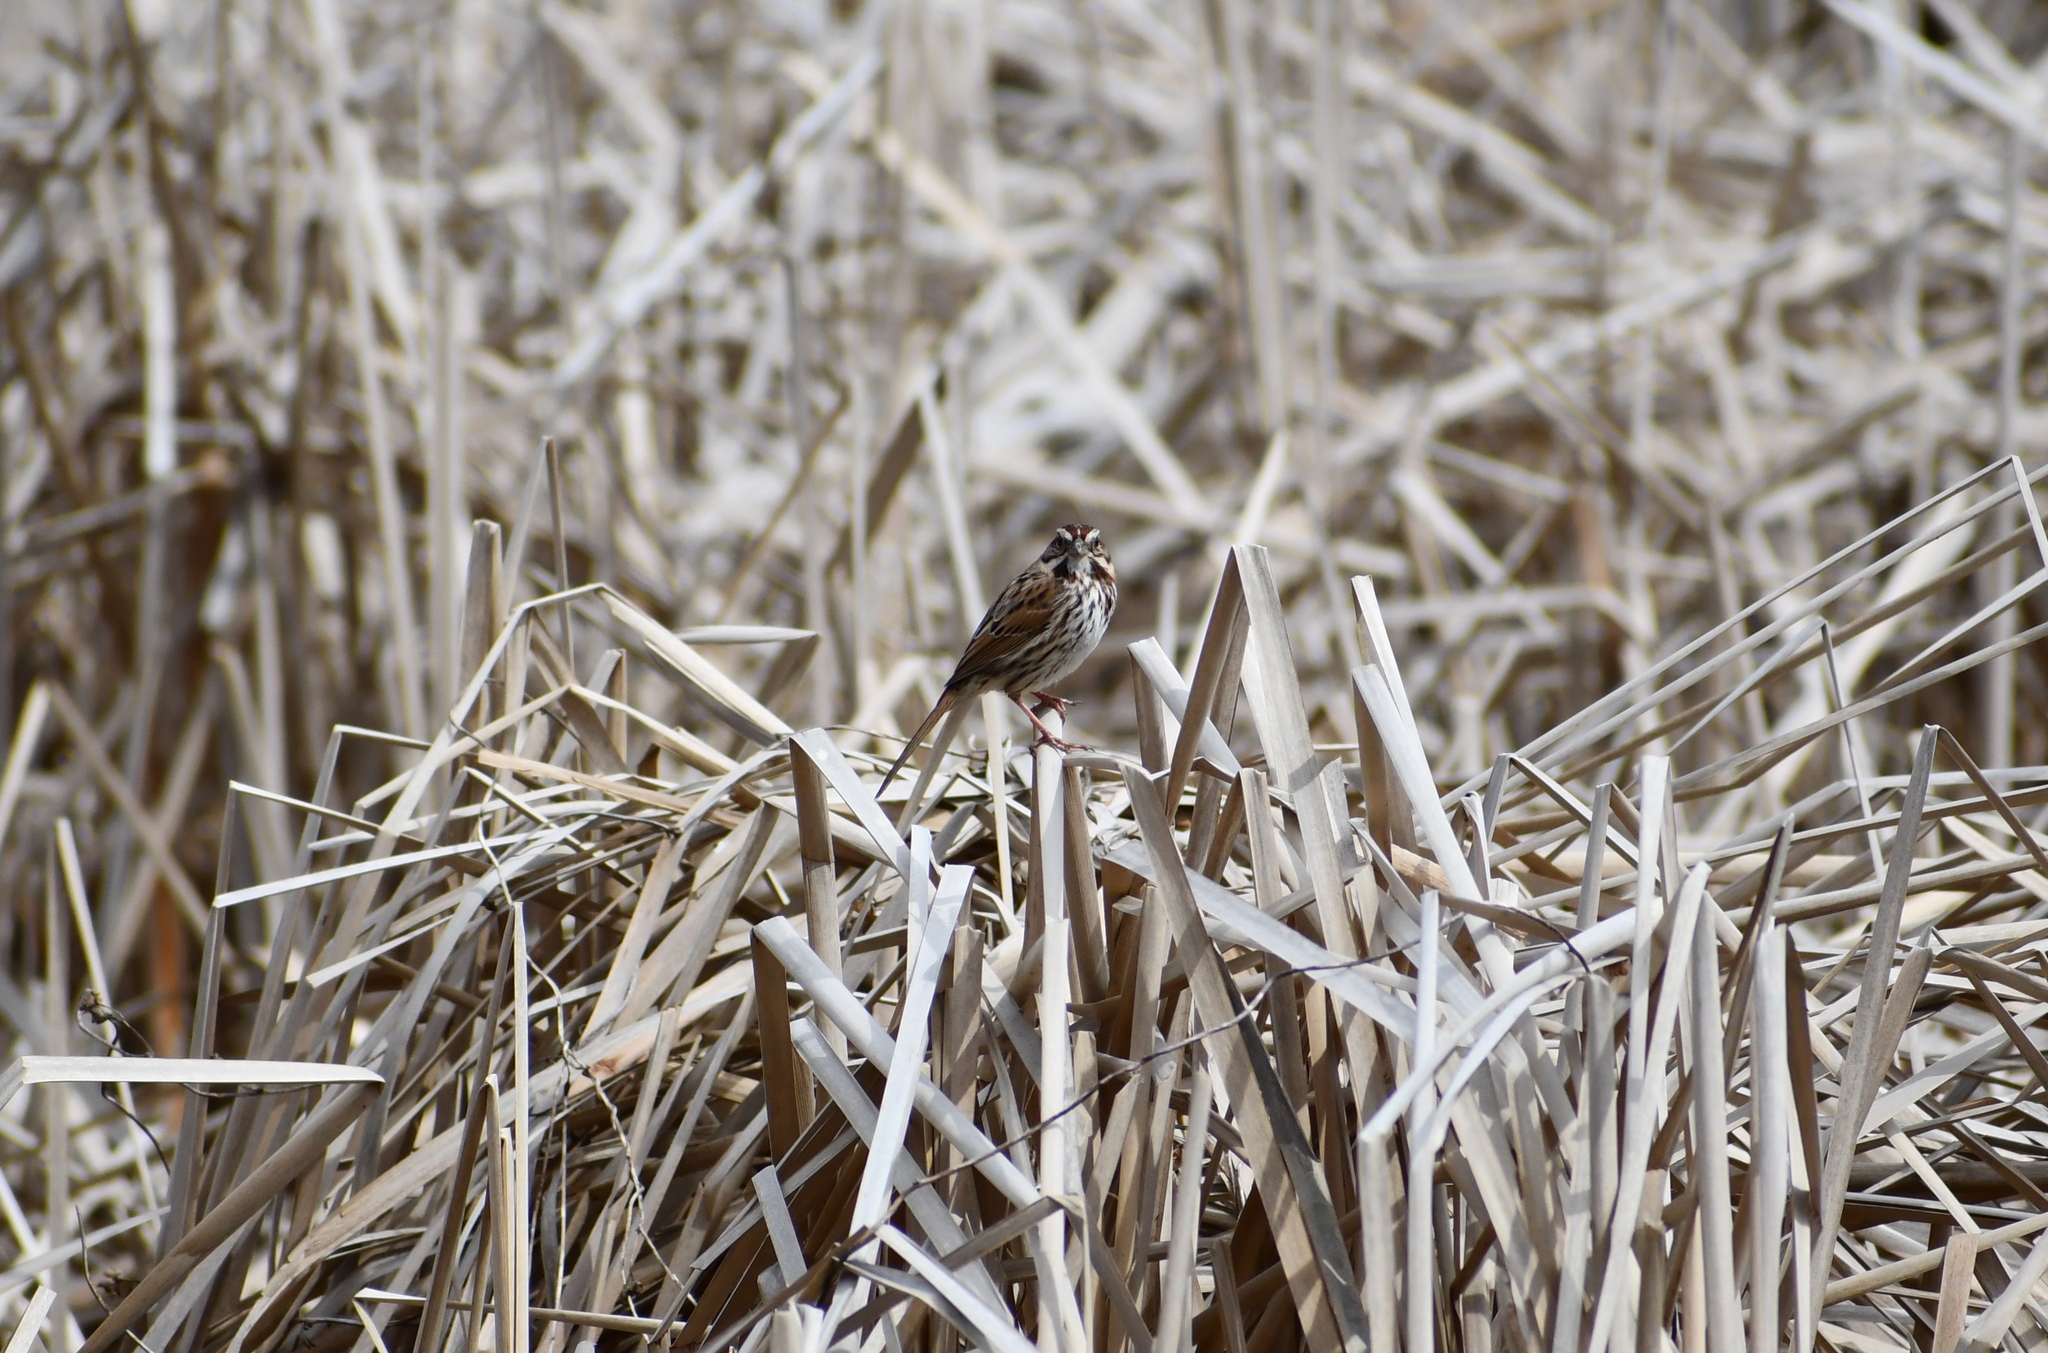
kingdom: Animalia
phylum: Chordata
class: Aves
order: Passeriformes
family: Passerellidae
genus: Melospiza
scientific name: Melospiza melodia
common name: Song sparrow
